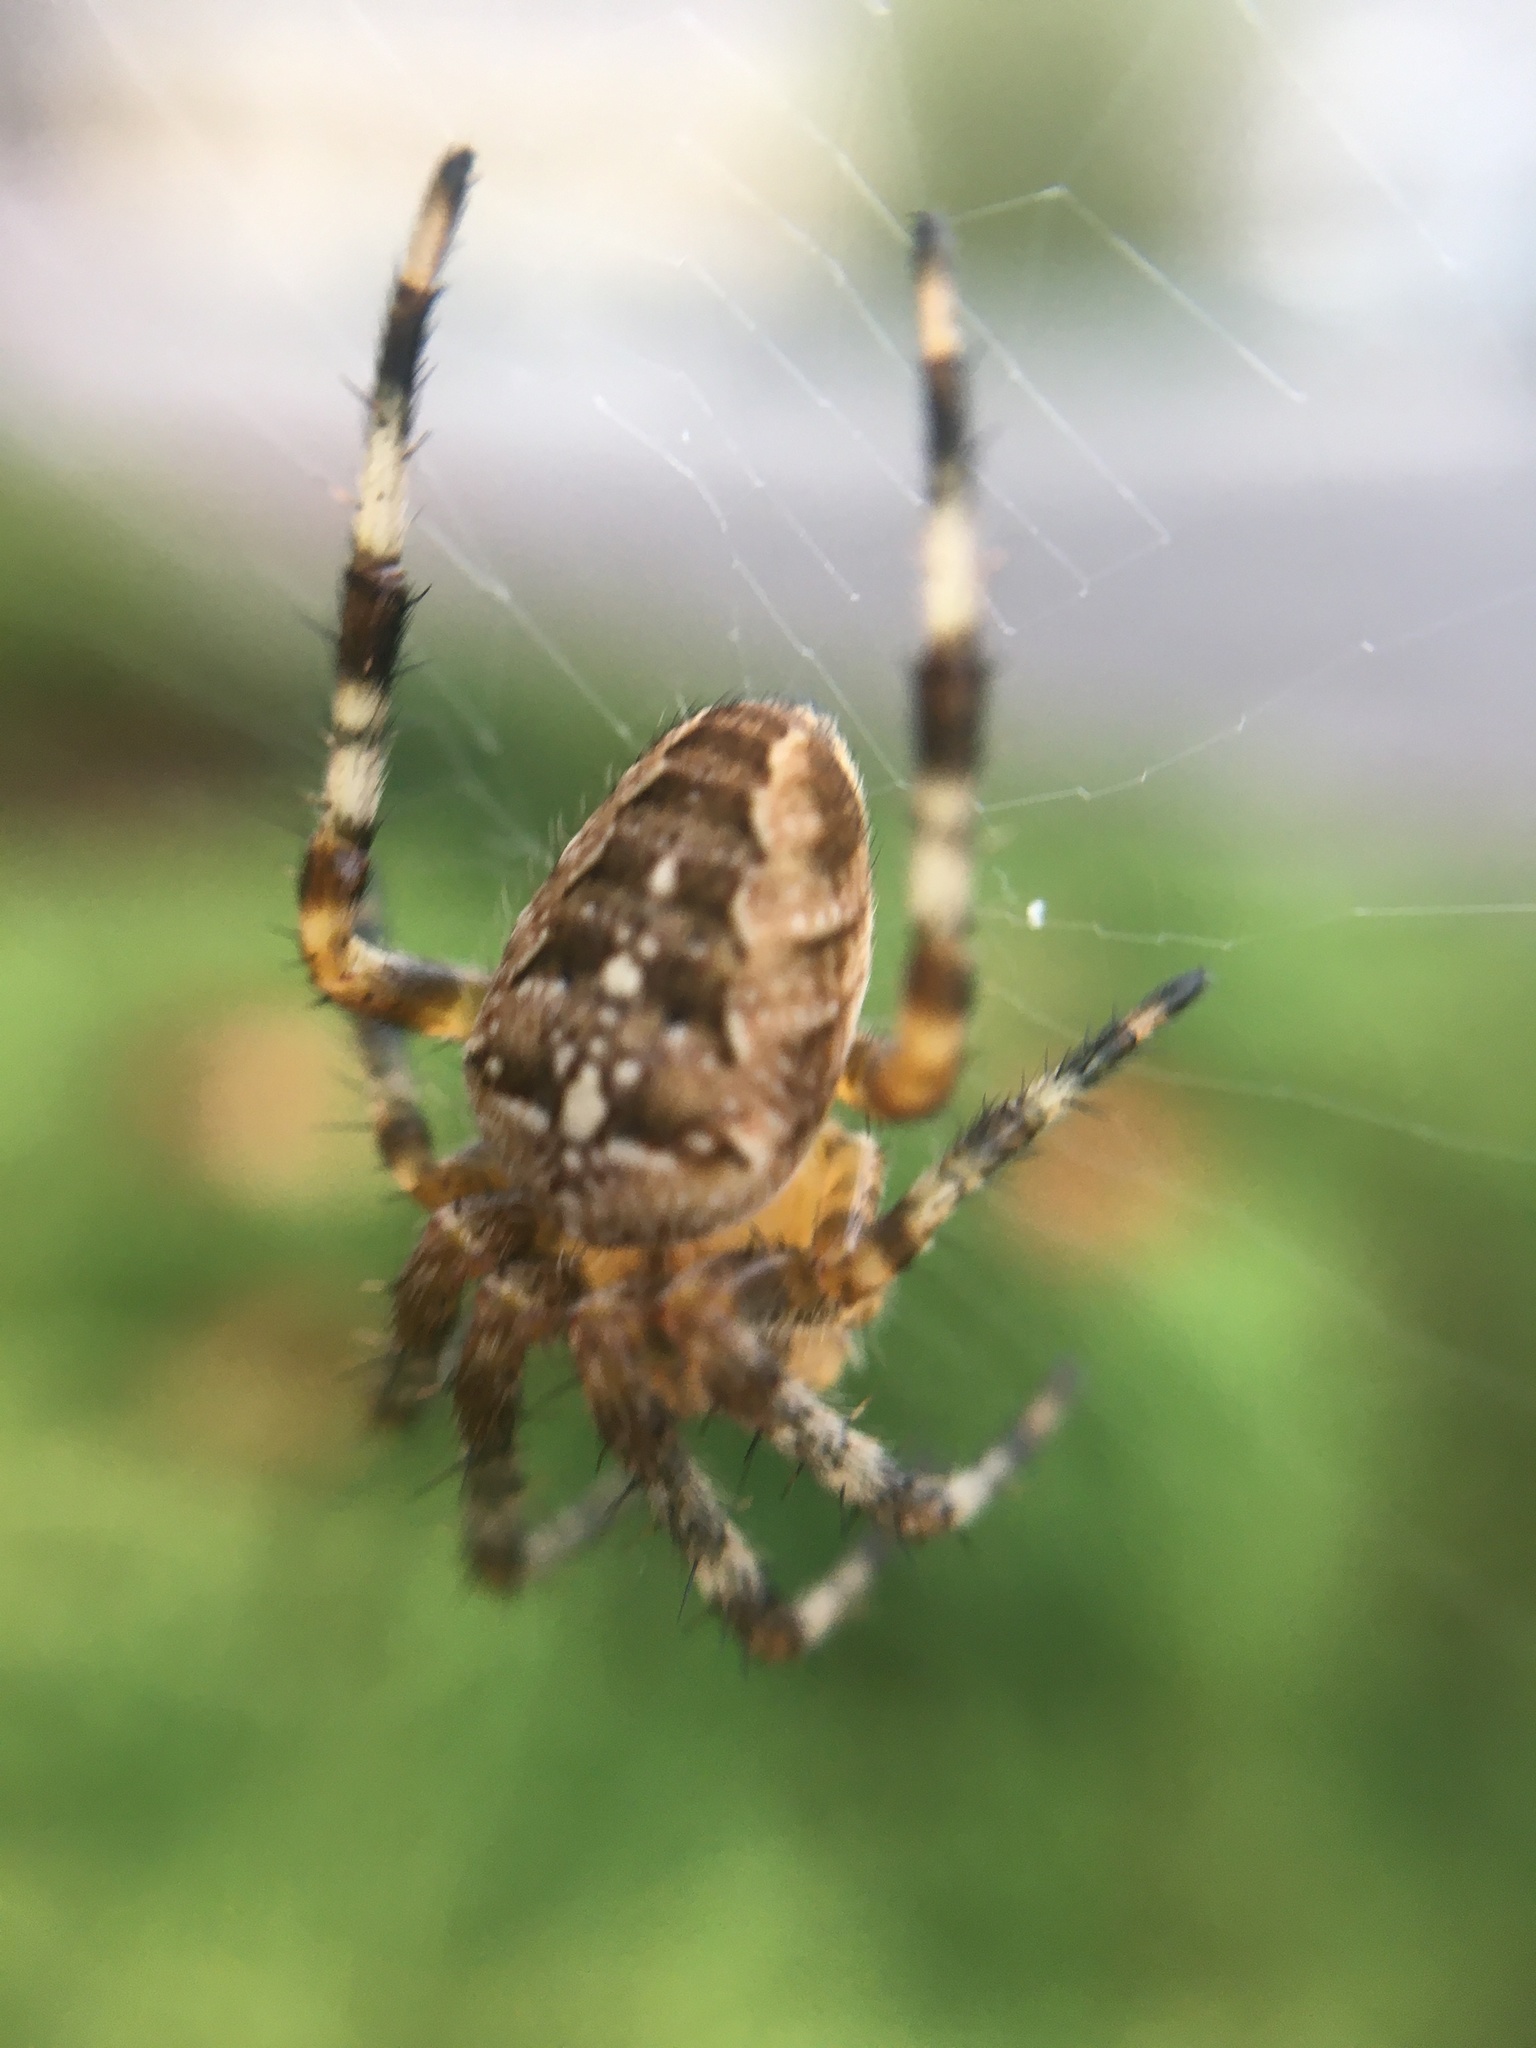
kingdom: Animalia
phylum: Arthropoda
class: Arachnida
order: Araneae
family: Araneidae
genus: Araneus
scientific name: Araneus diadematus
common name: Cross orbweaver
